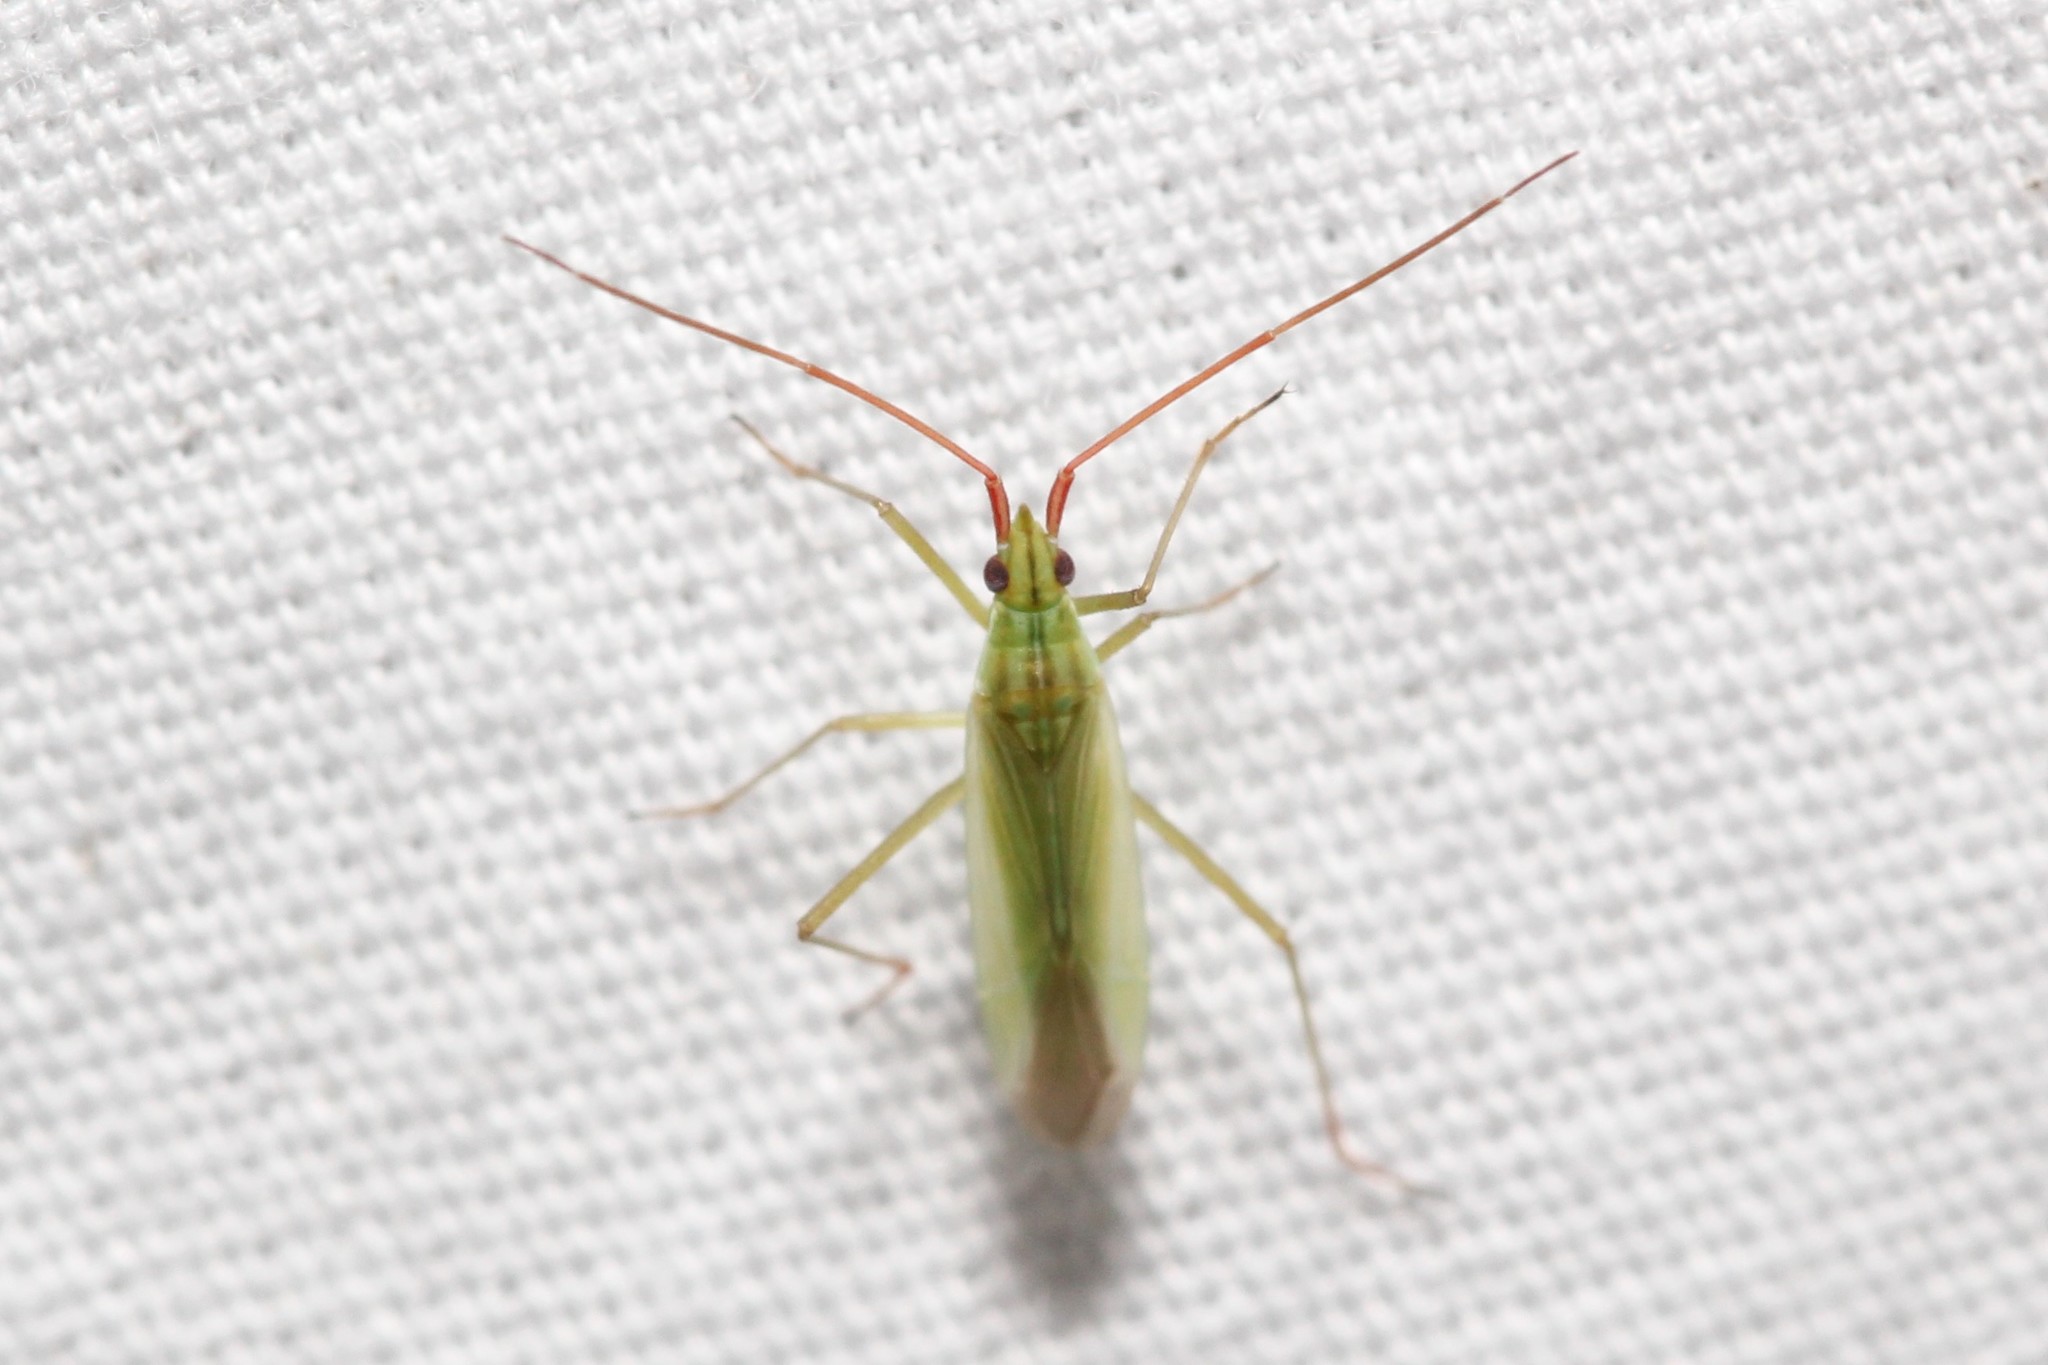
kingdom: Animalia
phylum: Arthropoda
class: Insecta
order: Hemiptera
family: Miridae
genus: Trigonotylus
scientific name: Trigonotylus caelestialium
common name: Rice leaf bug
